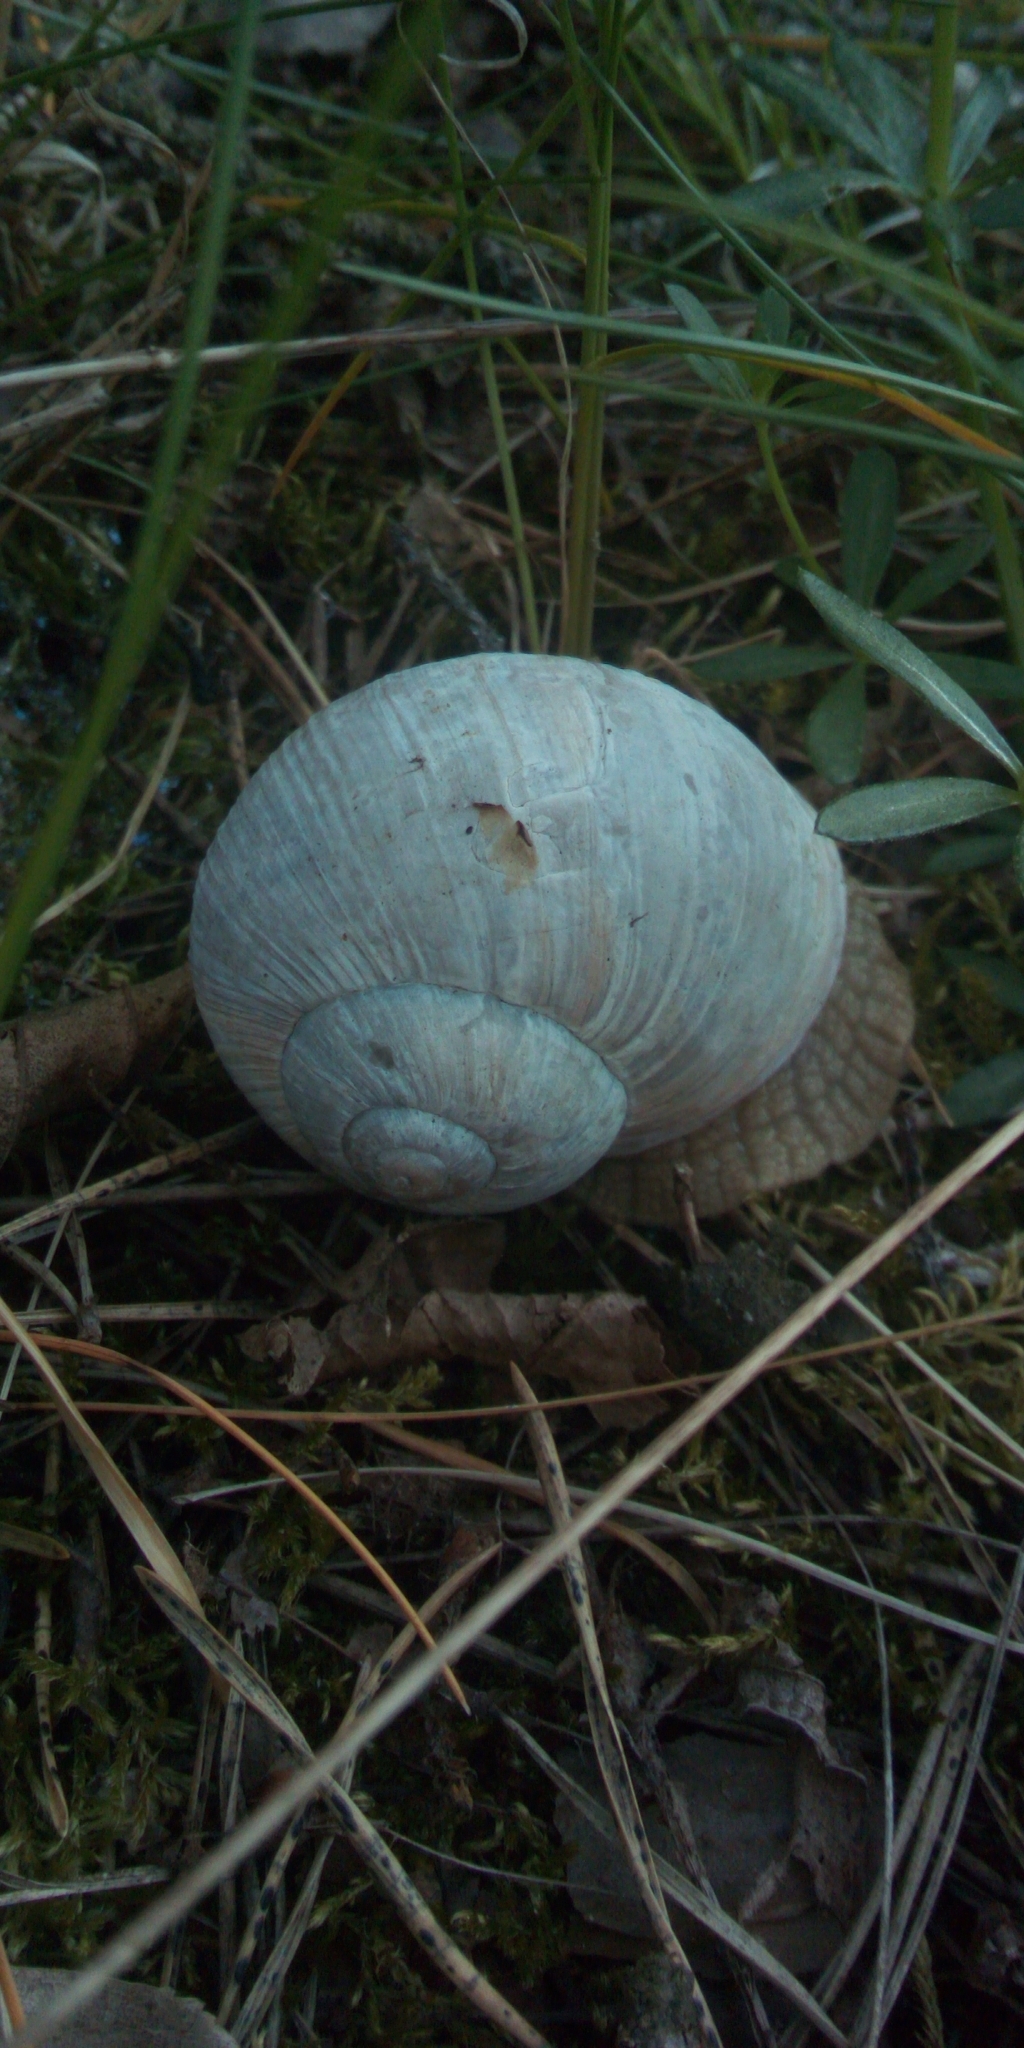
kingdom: Animalia
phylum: Mollusca
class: Gastropoda
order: Stylommatophora
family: Helicidae
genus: Helix
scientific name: Helix pomatia
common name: Roman snail
